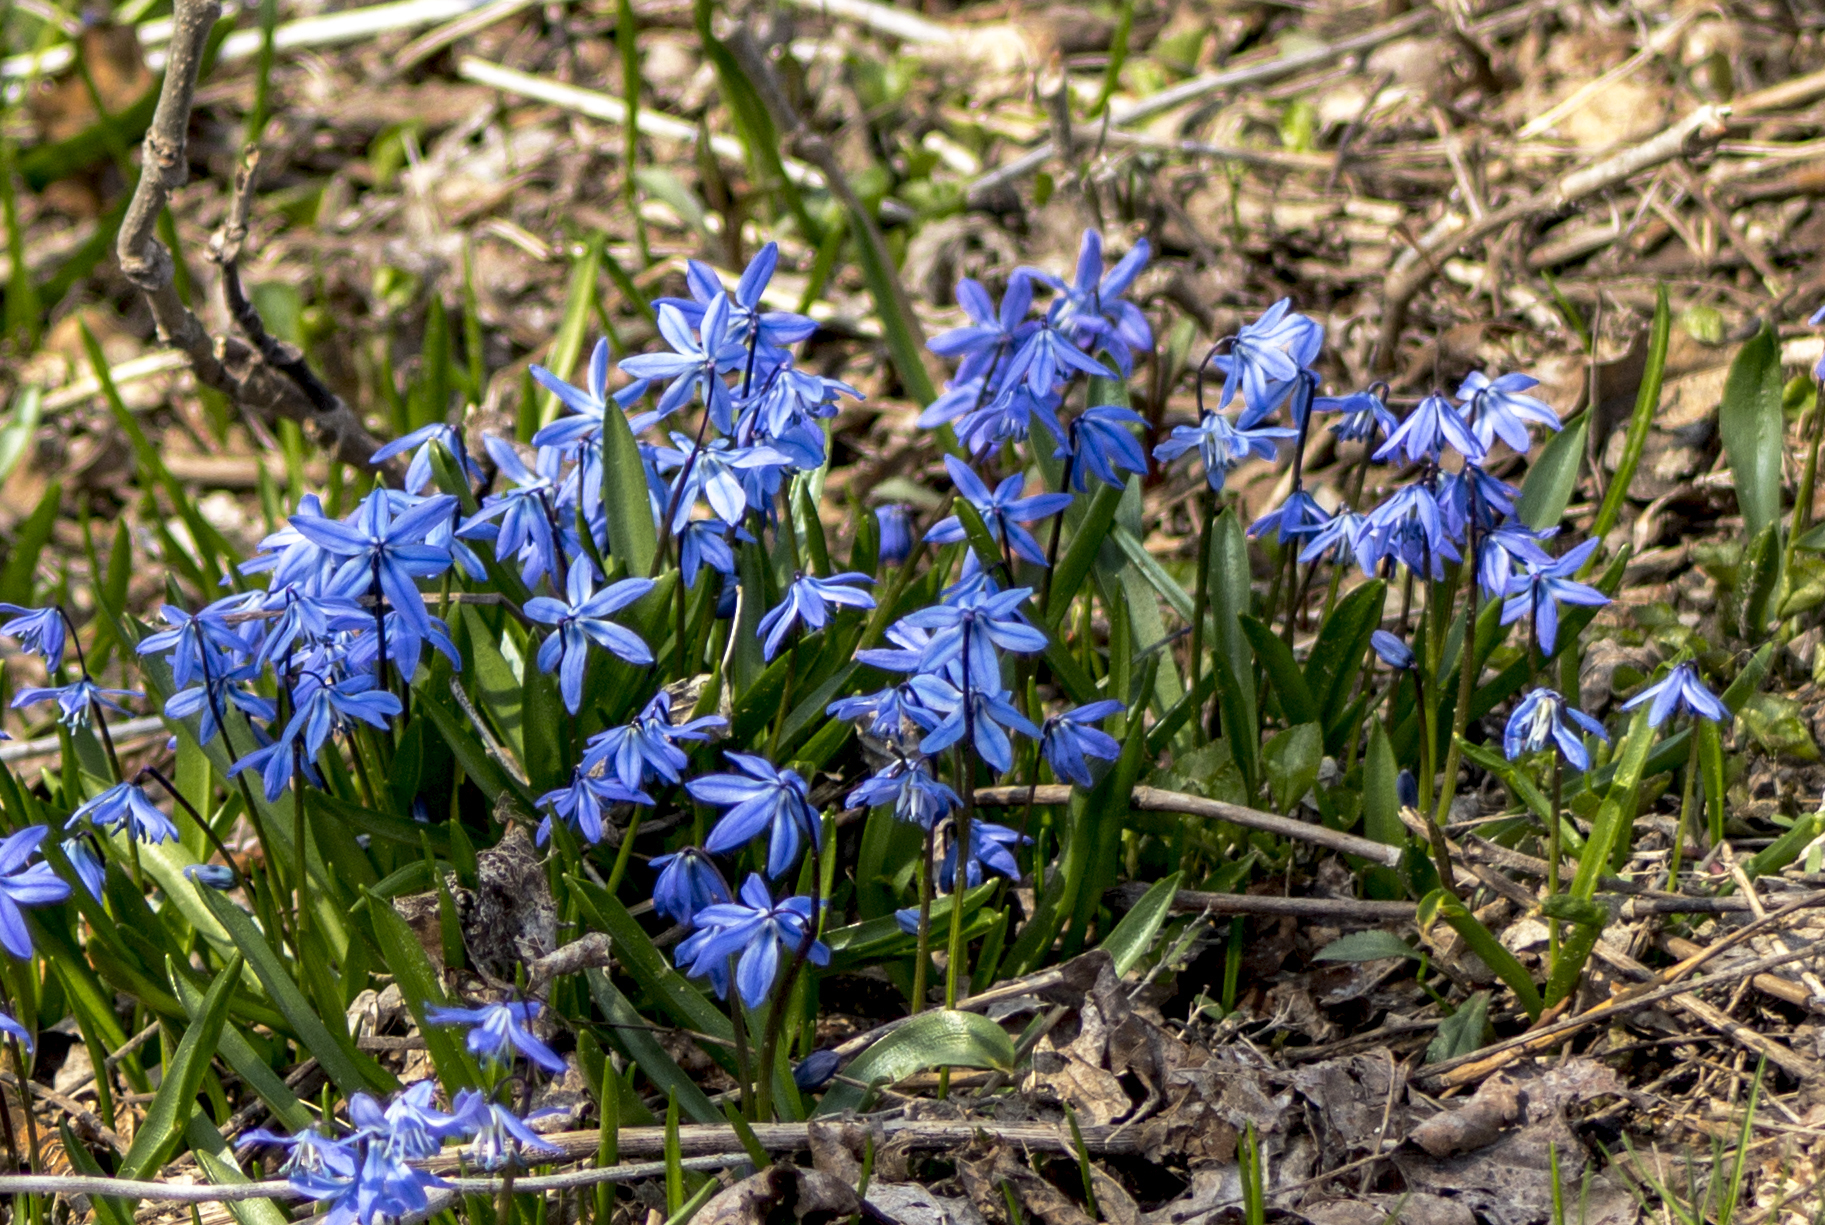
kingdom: Plantae
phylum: Tracheophyta
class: Liliopsida
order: Asparagales
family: Asparagaceae
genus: Scilla
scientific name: Scilla siberica
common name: Siberian squill
